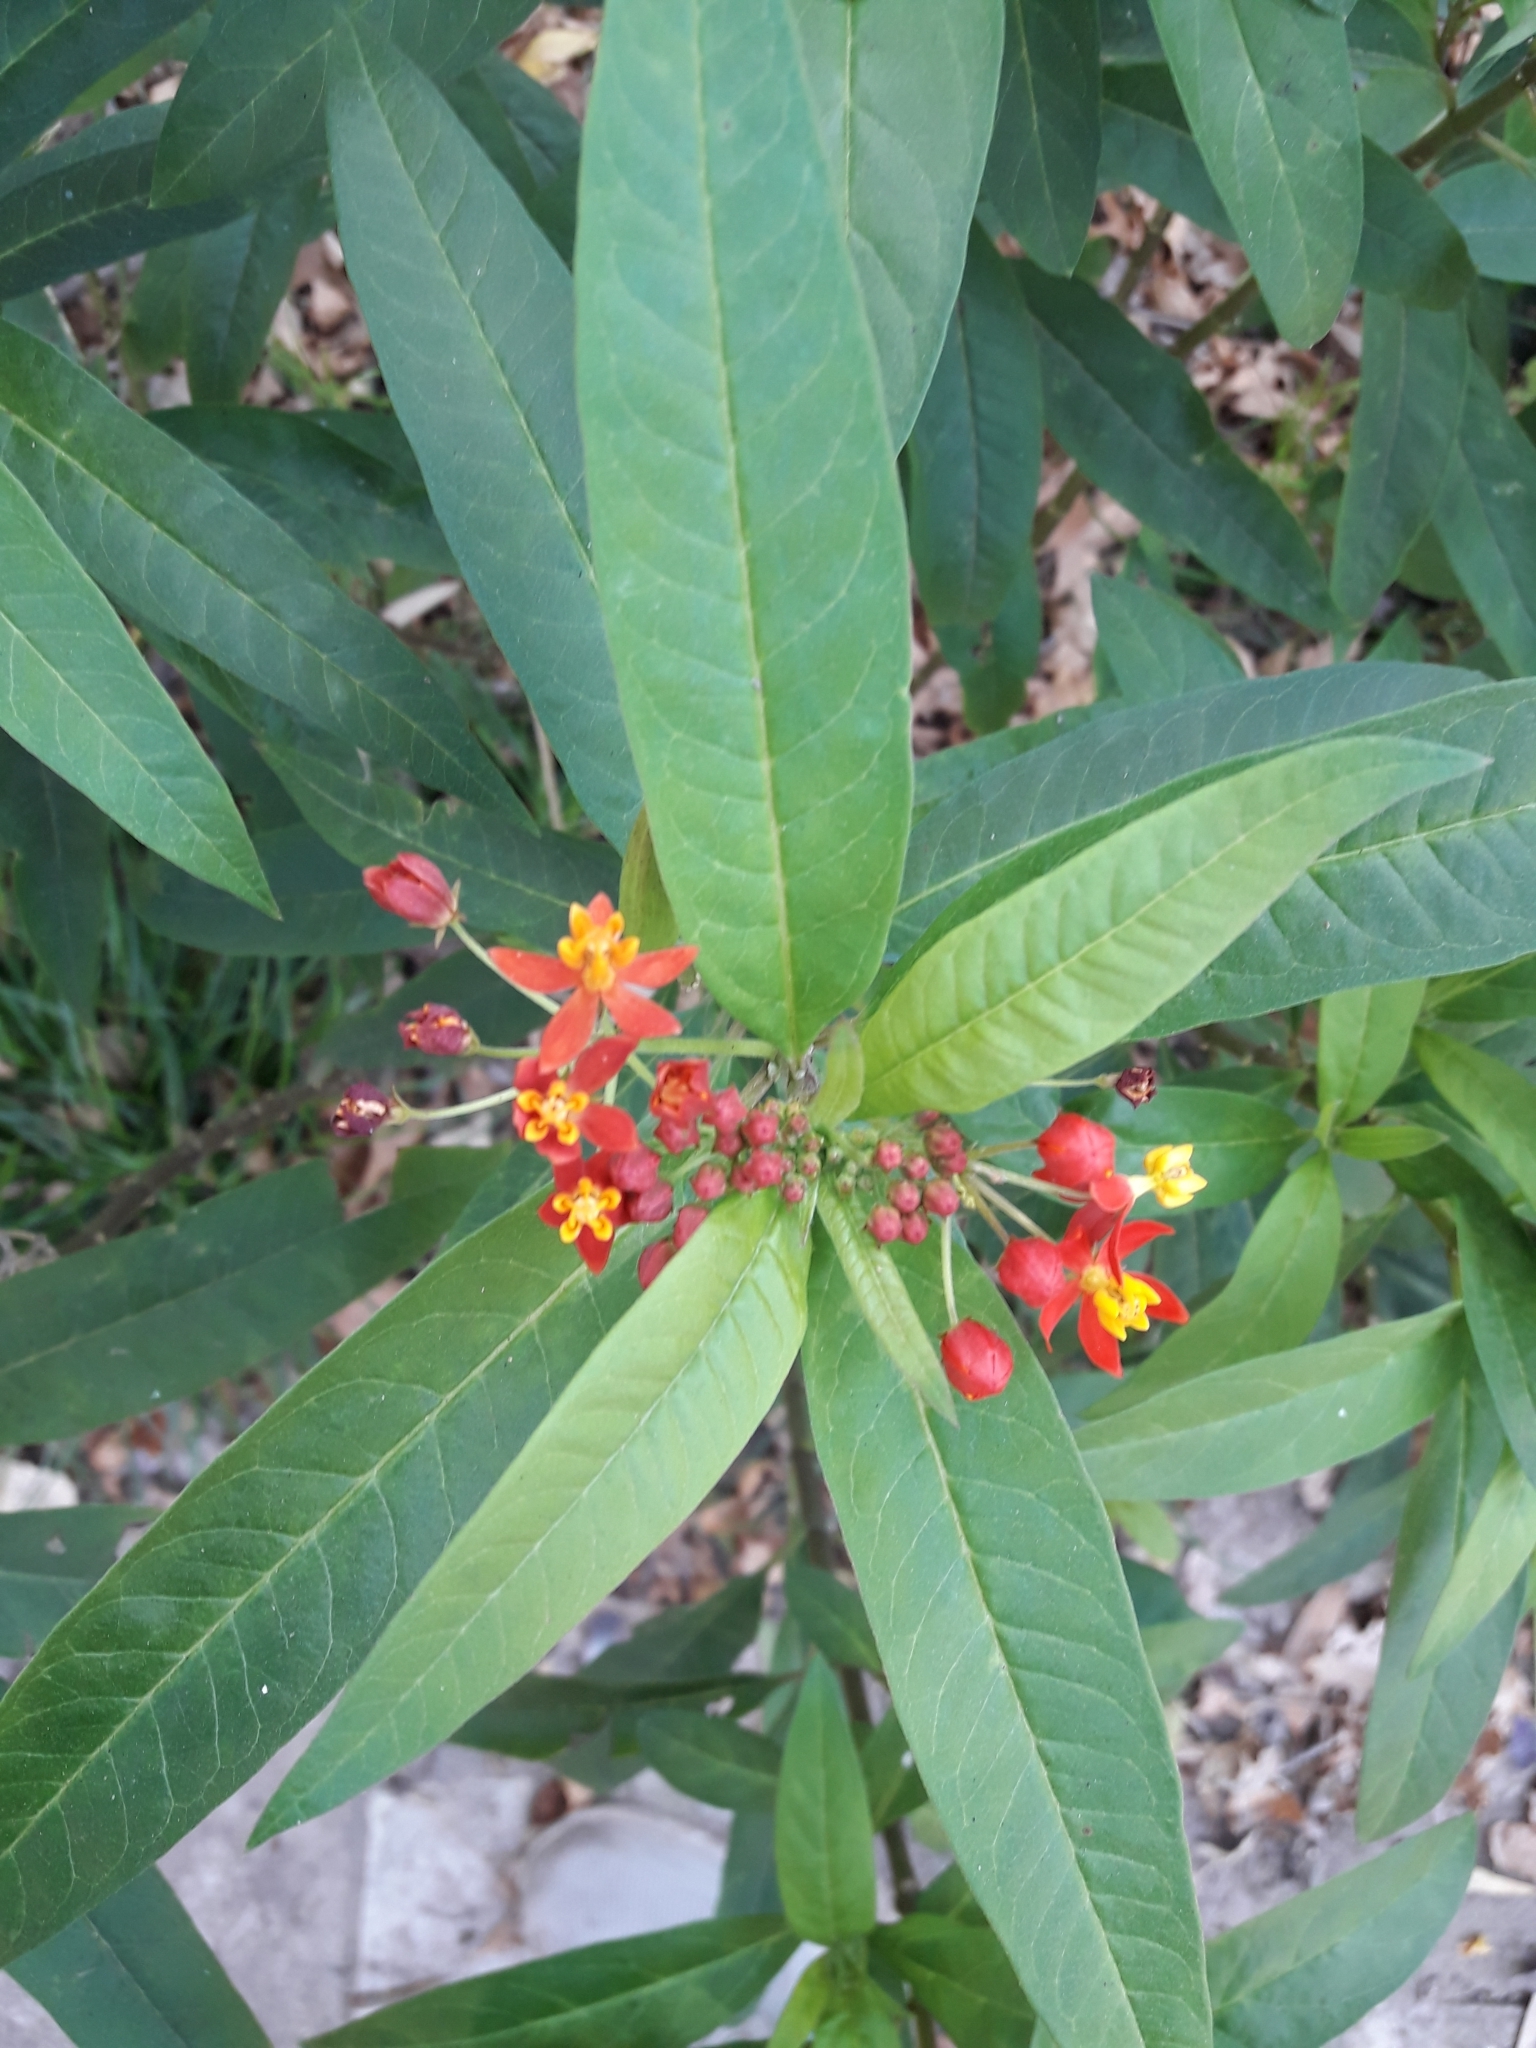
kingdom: Plantae
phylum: Tracheophyta
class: Magnoliopsida
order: Gentianales
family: Apocynaceae
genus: Asclepias
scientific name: Asclepias curassavica
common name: Bloodflower
